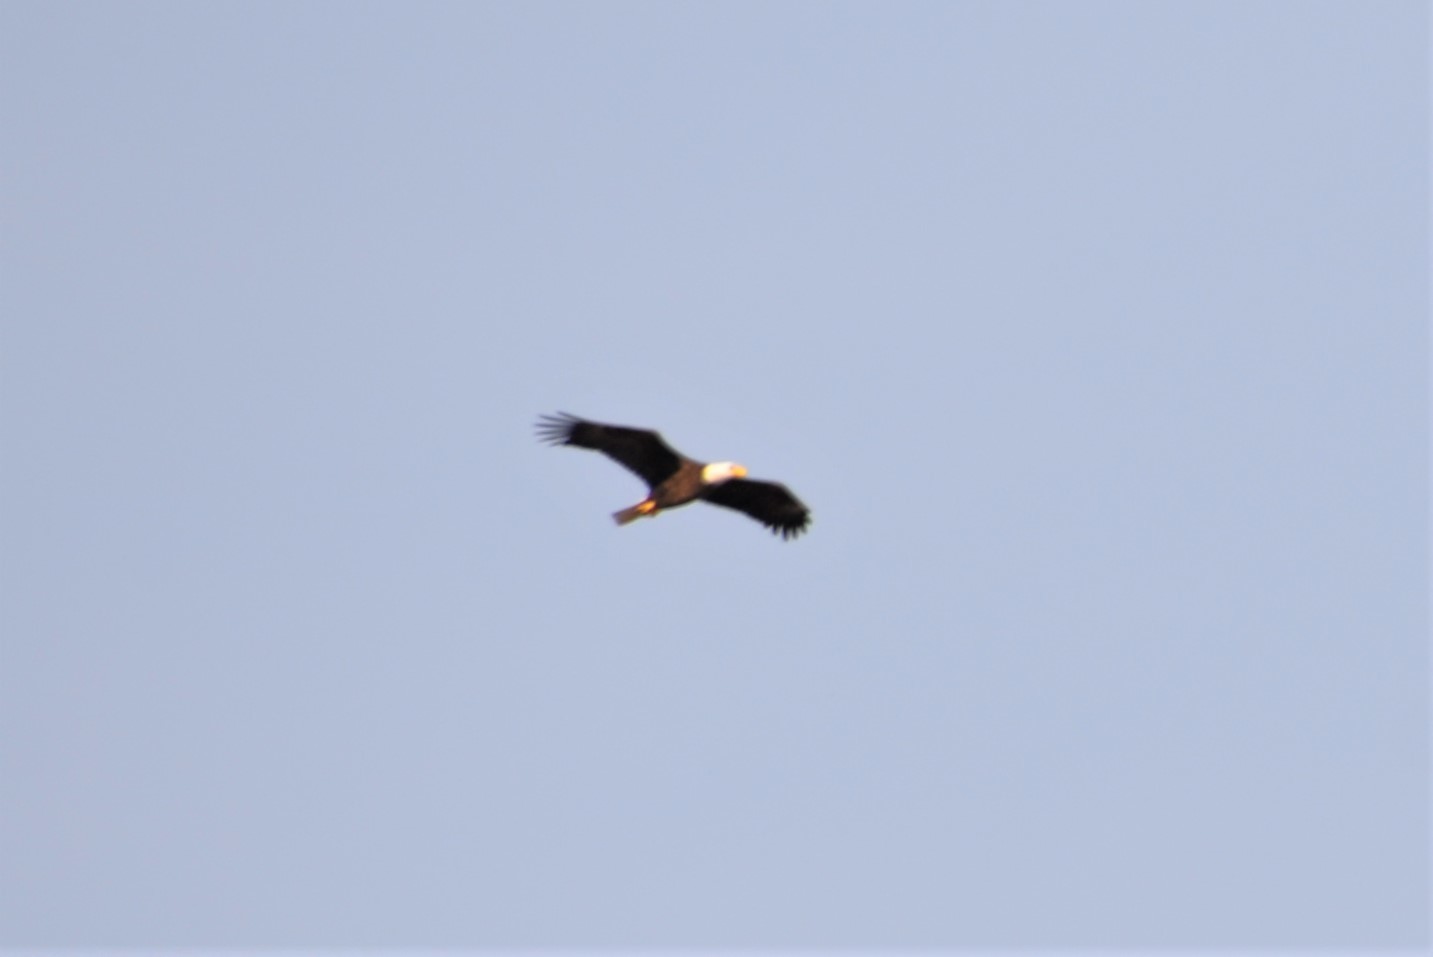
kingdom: Animalia
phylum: Chordata
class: Aves
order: Accipitriformes
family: Accipitridae
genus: Haliaeetus
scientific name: Haliaeetus leucocephalus
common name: Bald eagle
